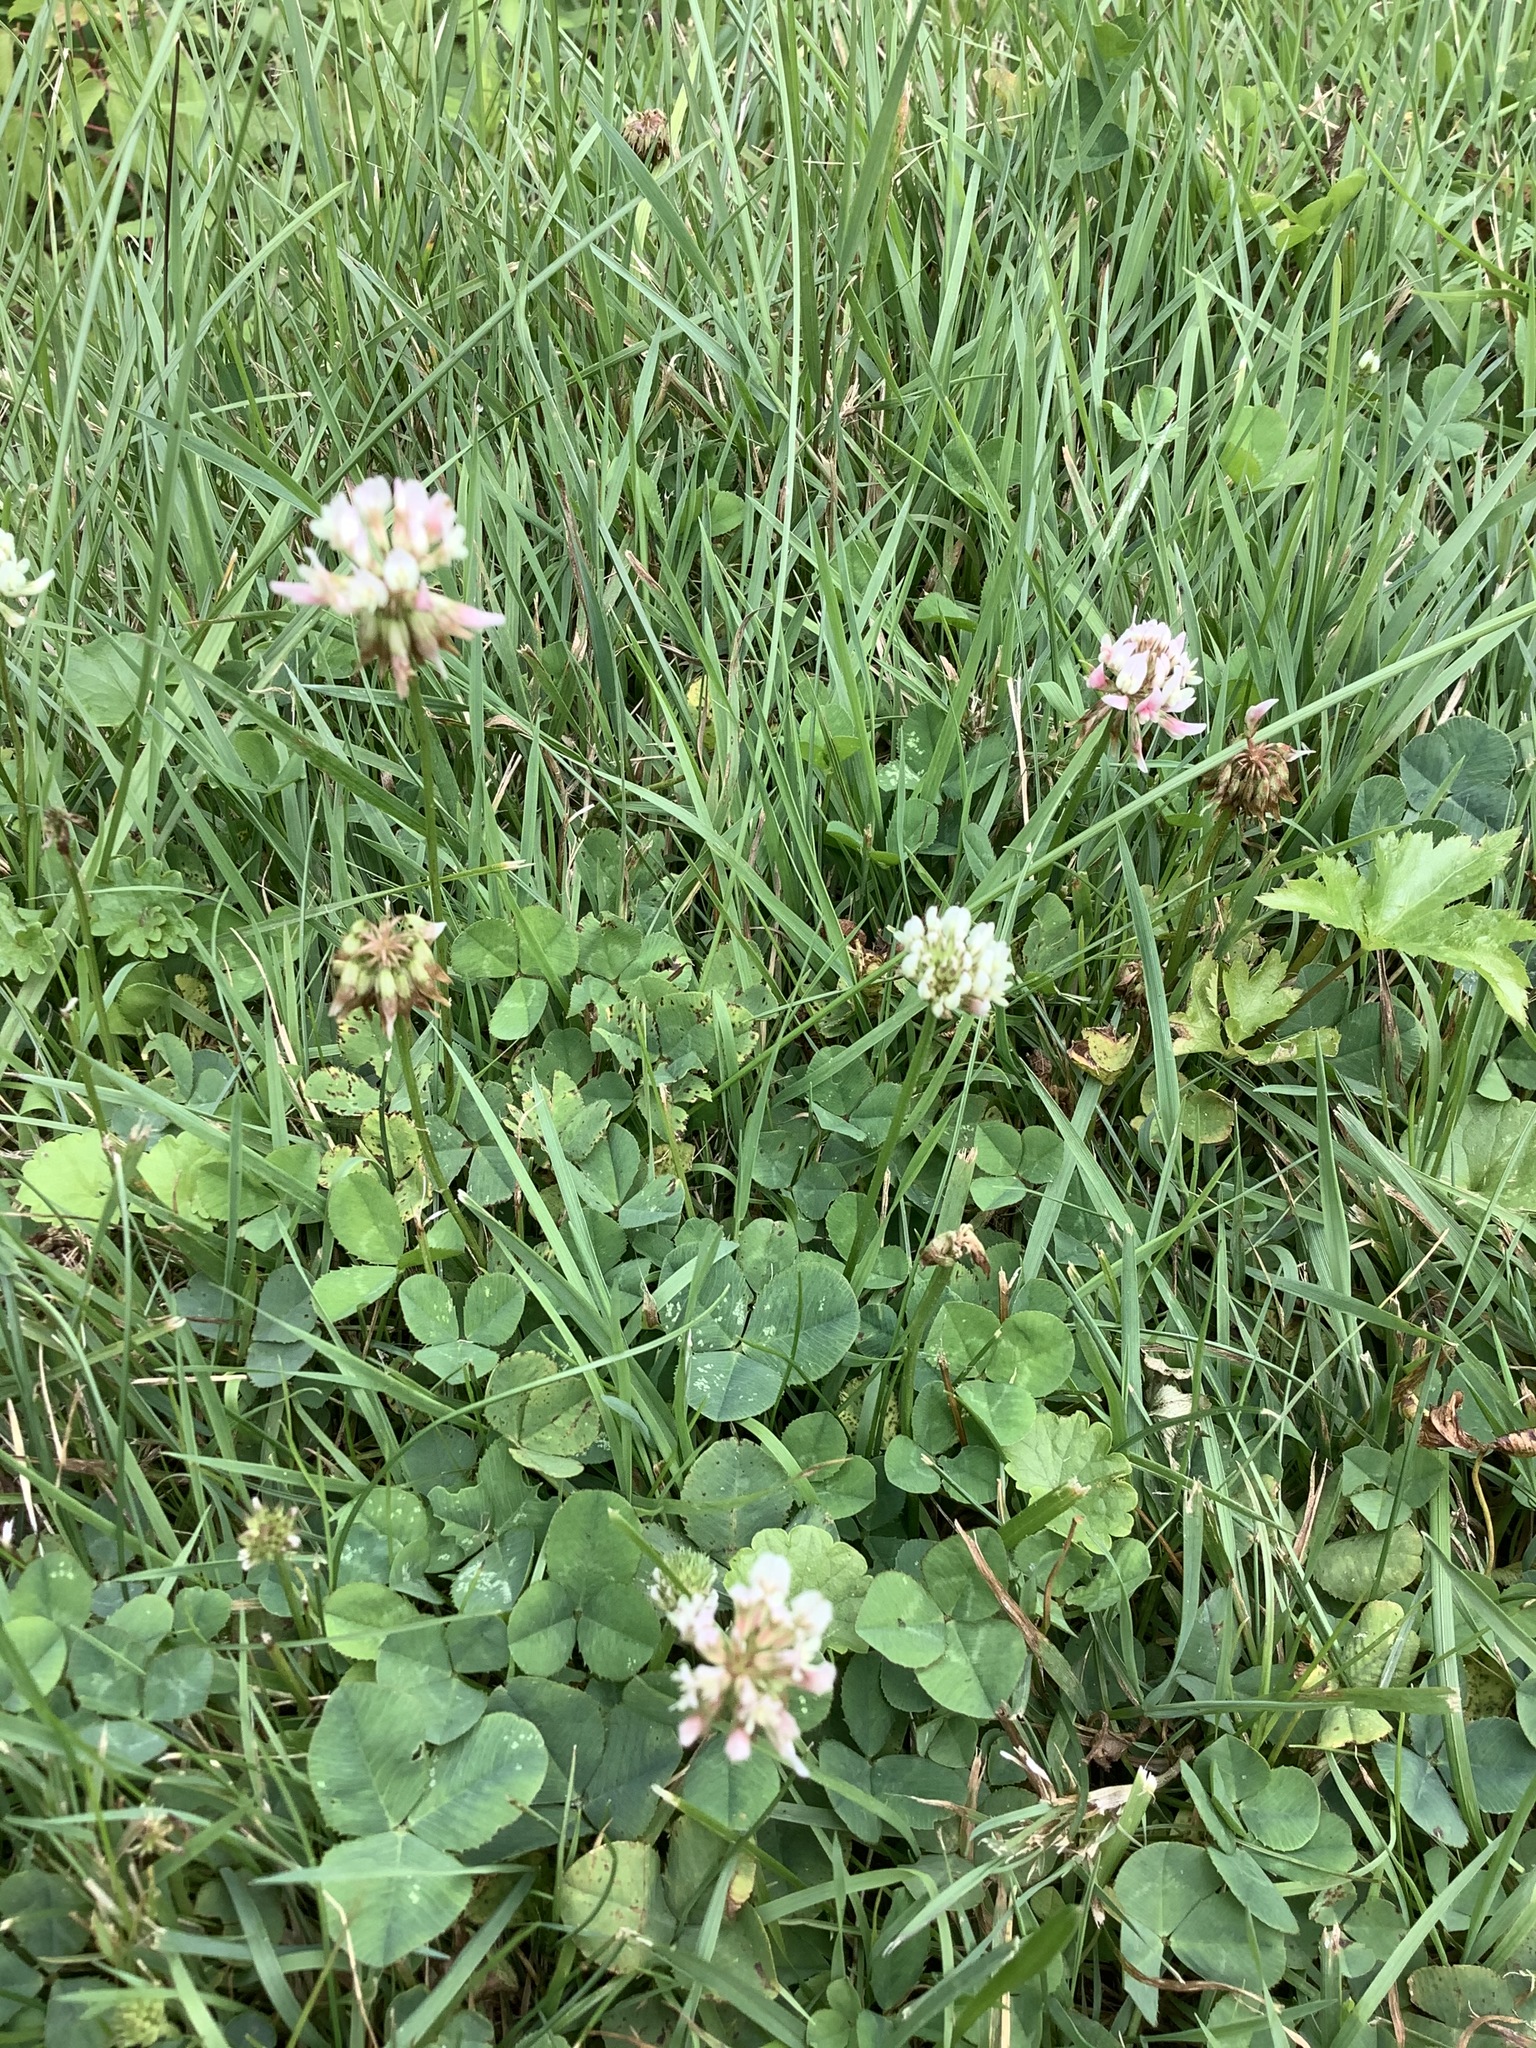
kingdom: Plantae
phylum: Tracheophyta
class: Magnoliopsida
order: Fabales
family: Fabaceae
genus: Trifolium
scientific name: Trifolium repens
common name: White clover
